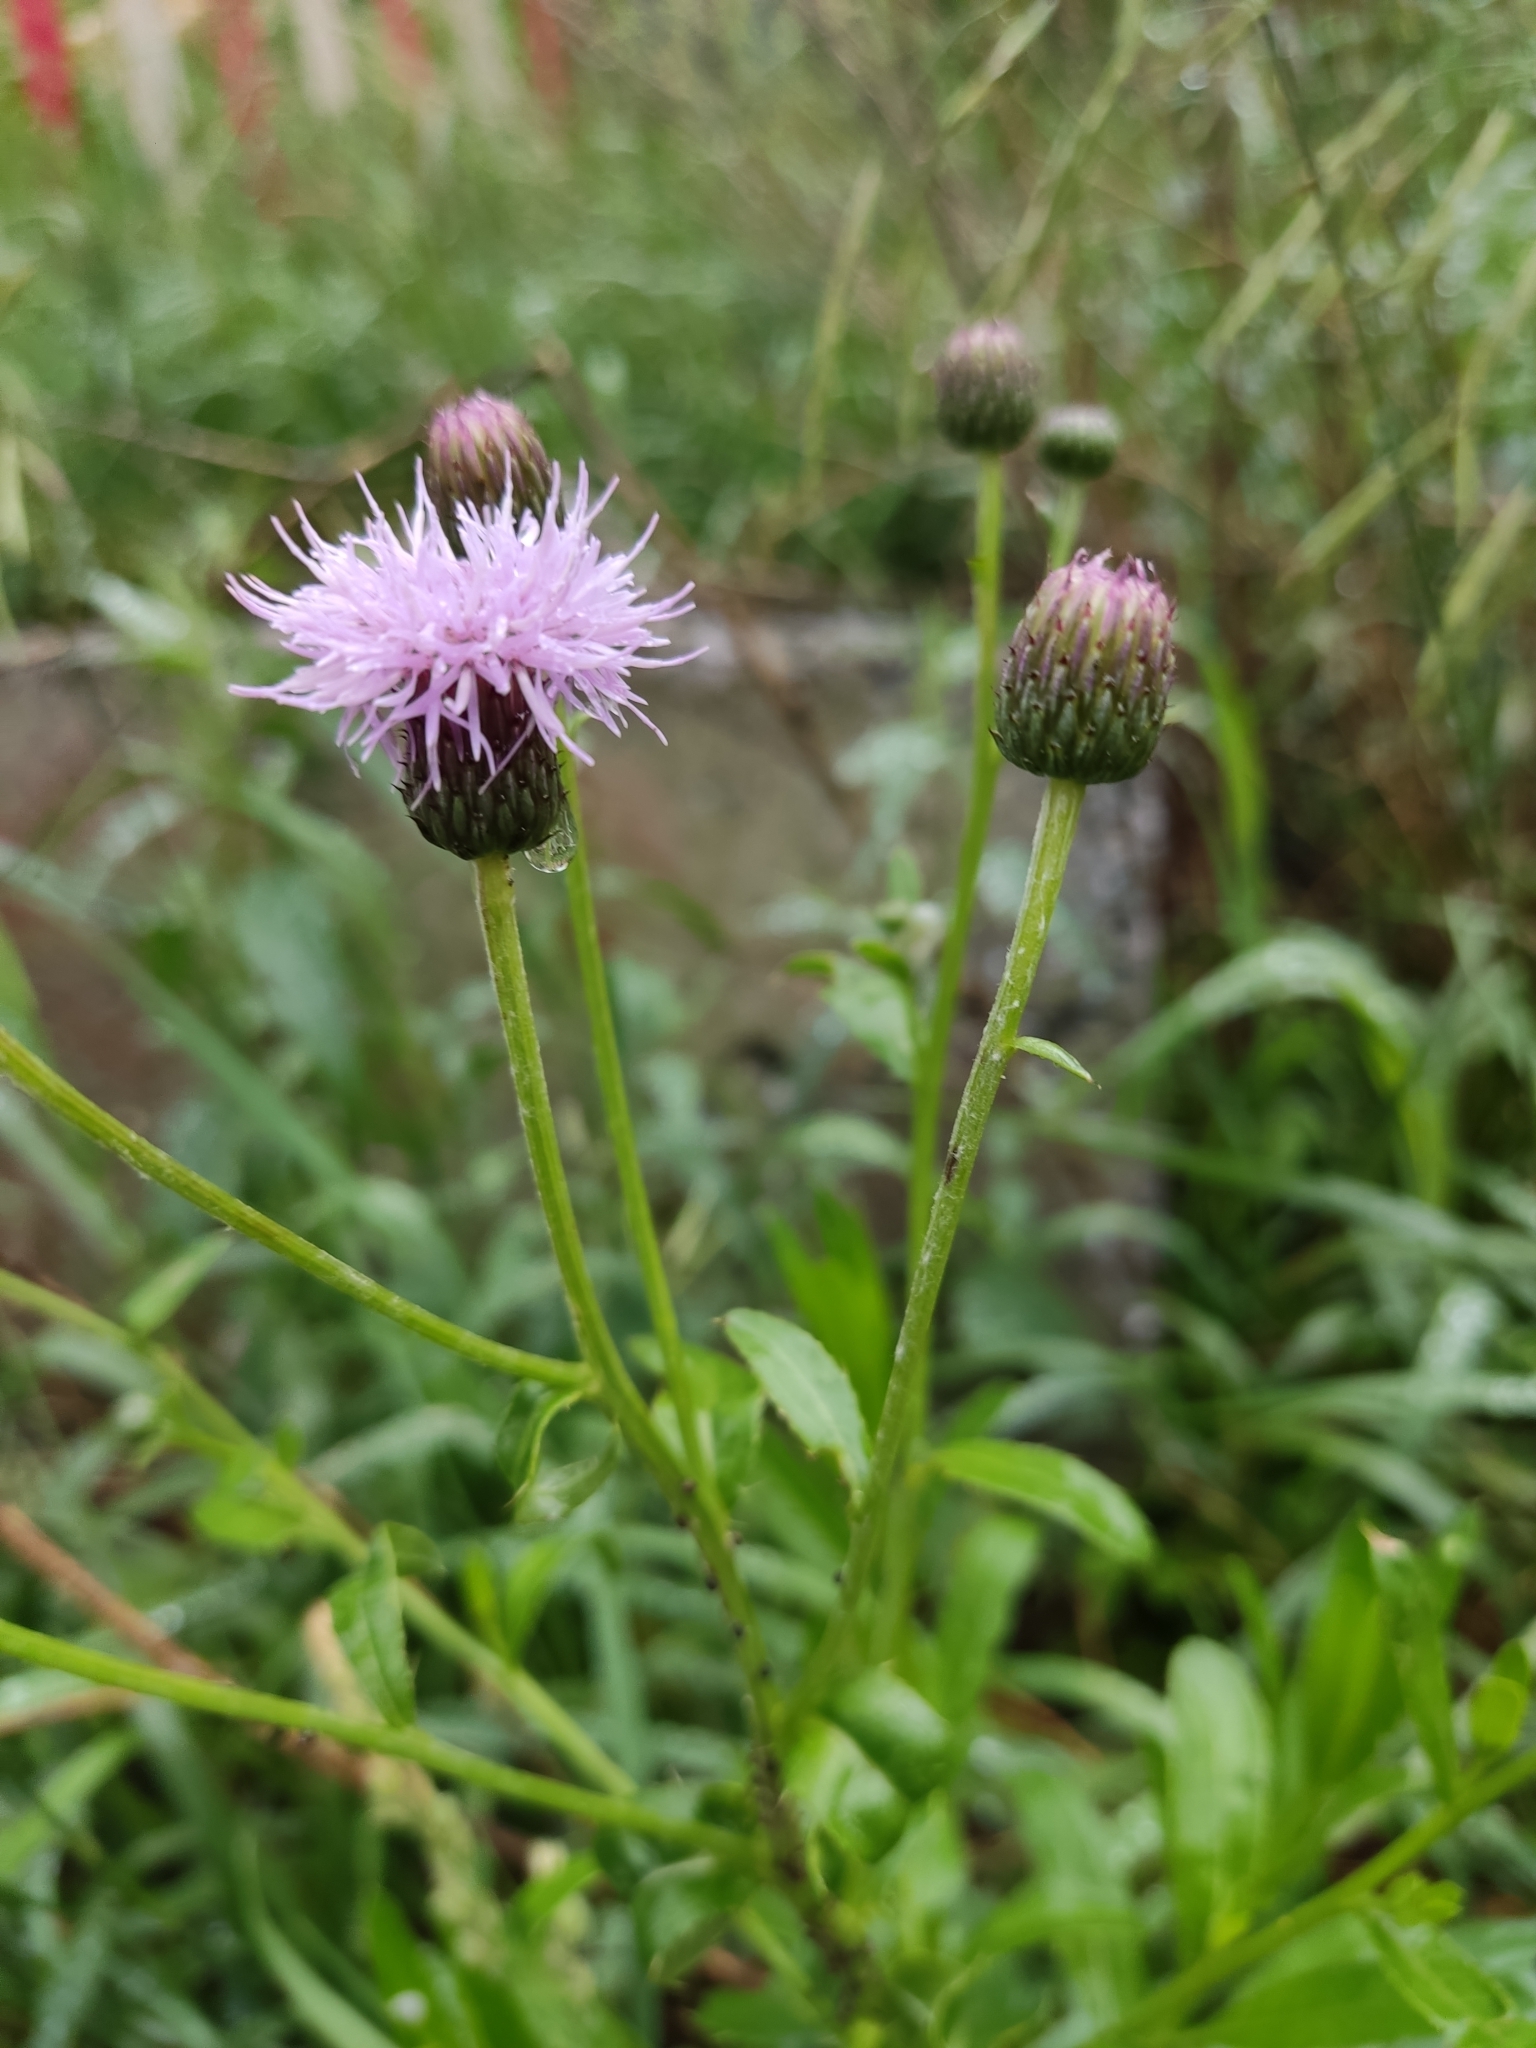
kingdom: Plantae
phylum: Tracheophyta
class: Magnoliopsida
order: Asterales
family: Asteraceae
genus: Cirsium
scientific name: Cirsium arvense
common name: Creeping thistle
